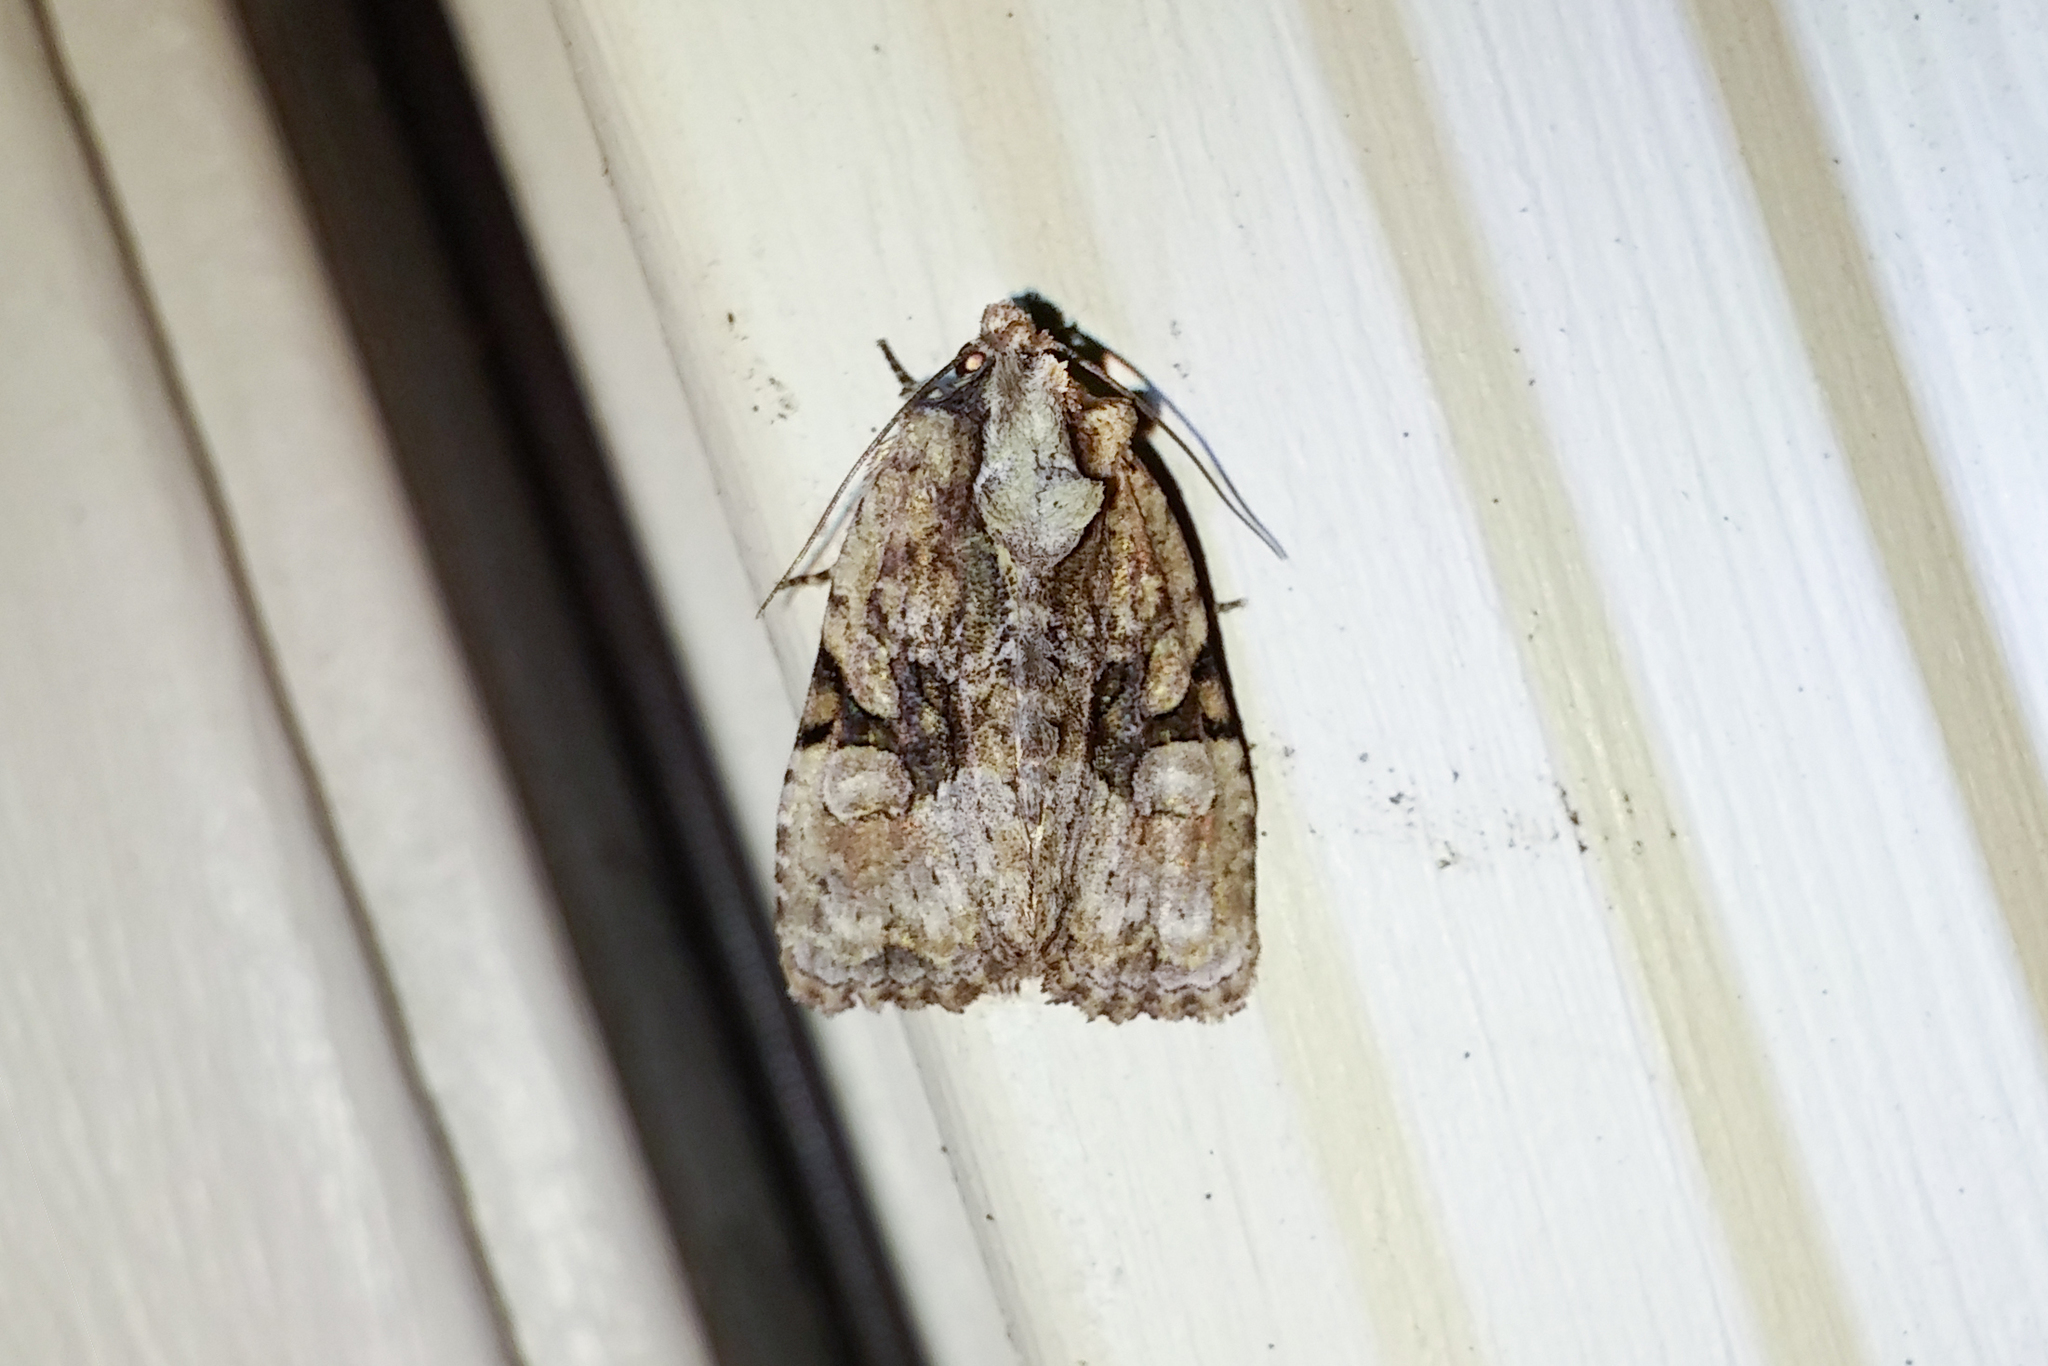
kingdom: Animalia
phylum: Arthropoda
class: Insecta
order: Lepidoptera
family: Noctuidae
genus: Oligia
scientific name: Oligia modica
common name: Black-banded brocade
